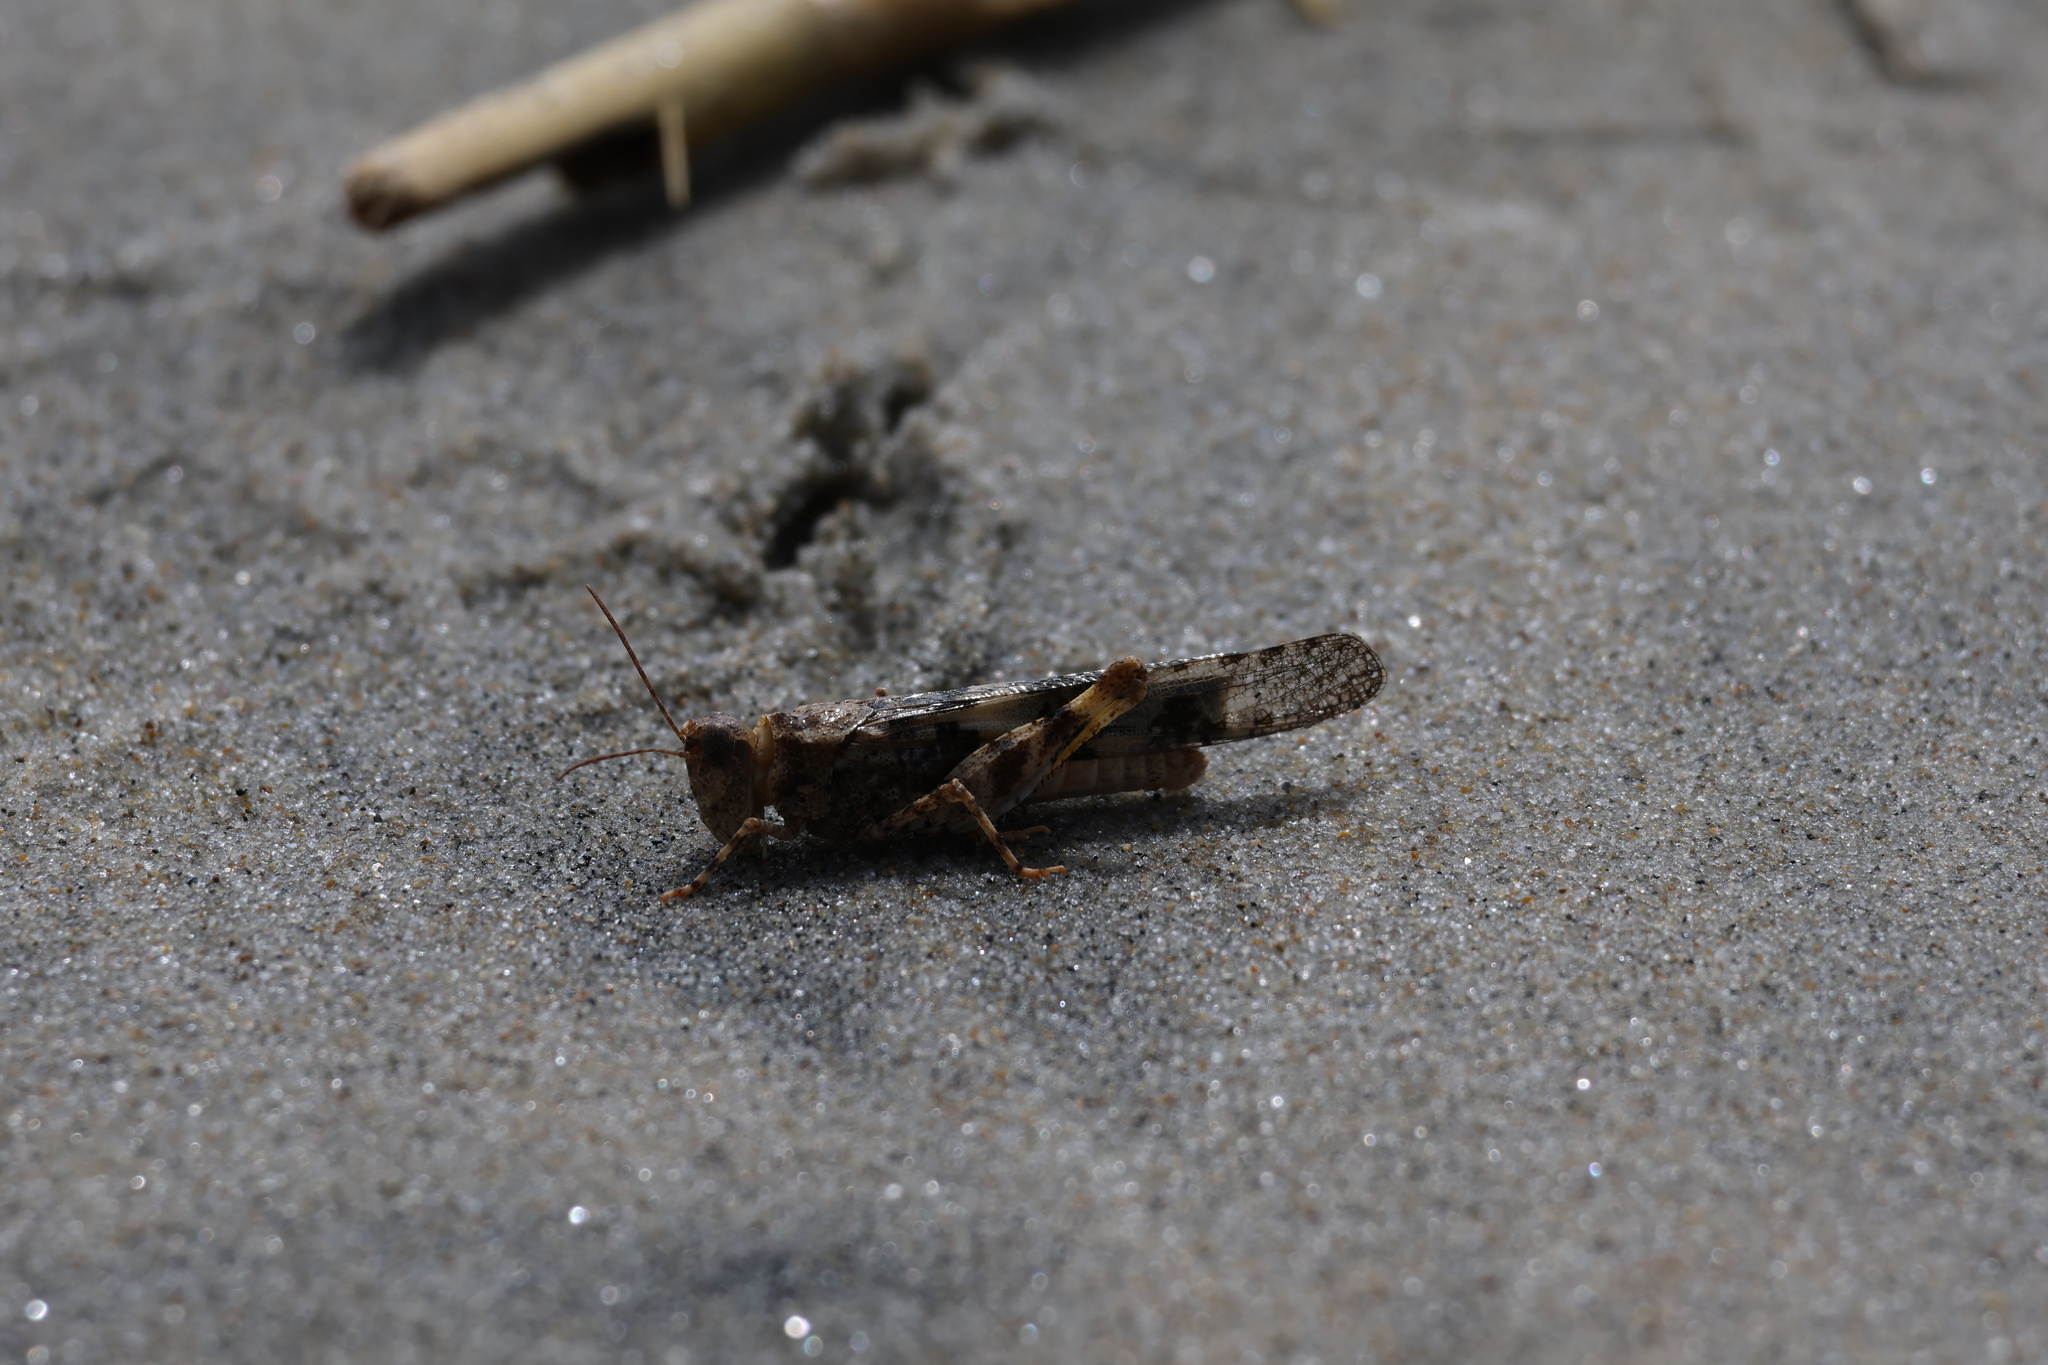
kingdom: Animalia
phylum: Arthropoda
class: Insecta
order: Orthoptera
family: Acrididae
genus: Trimerotropis
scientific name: Trimerotropis pallidipennis
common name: Pallid-winged grasshopper
